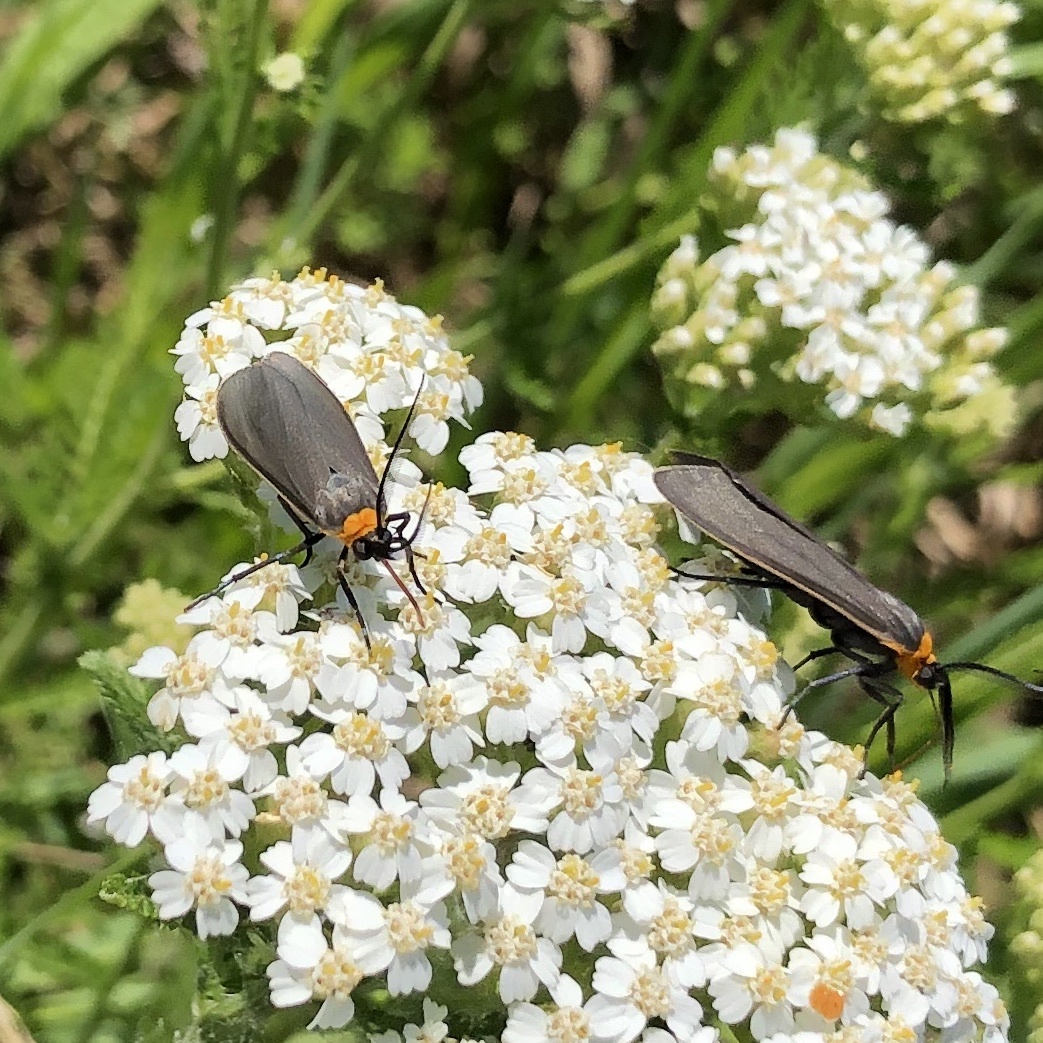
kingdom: Animalia
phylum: Arthropoda
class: Insecta
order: Lepidoptera
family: Erebidae
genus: Cisseps
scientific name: Cisseps fulvicollis
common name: Yellow-collared scape moth
